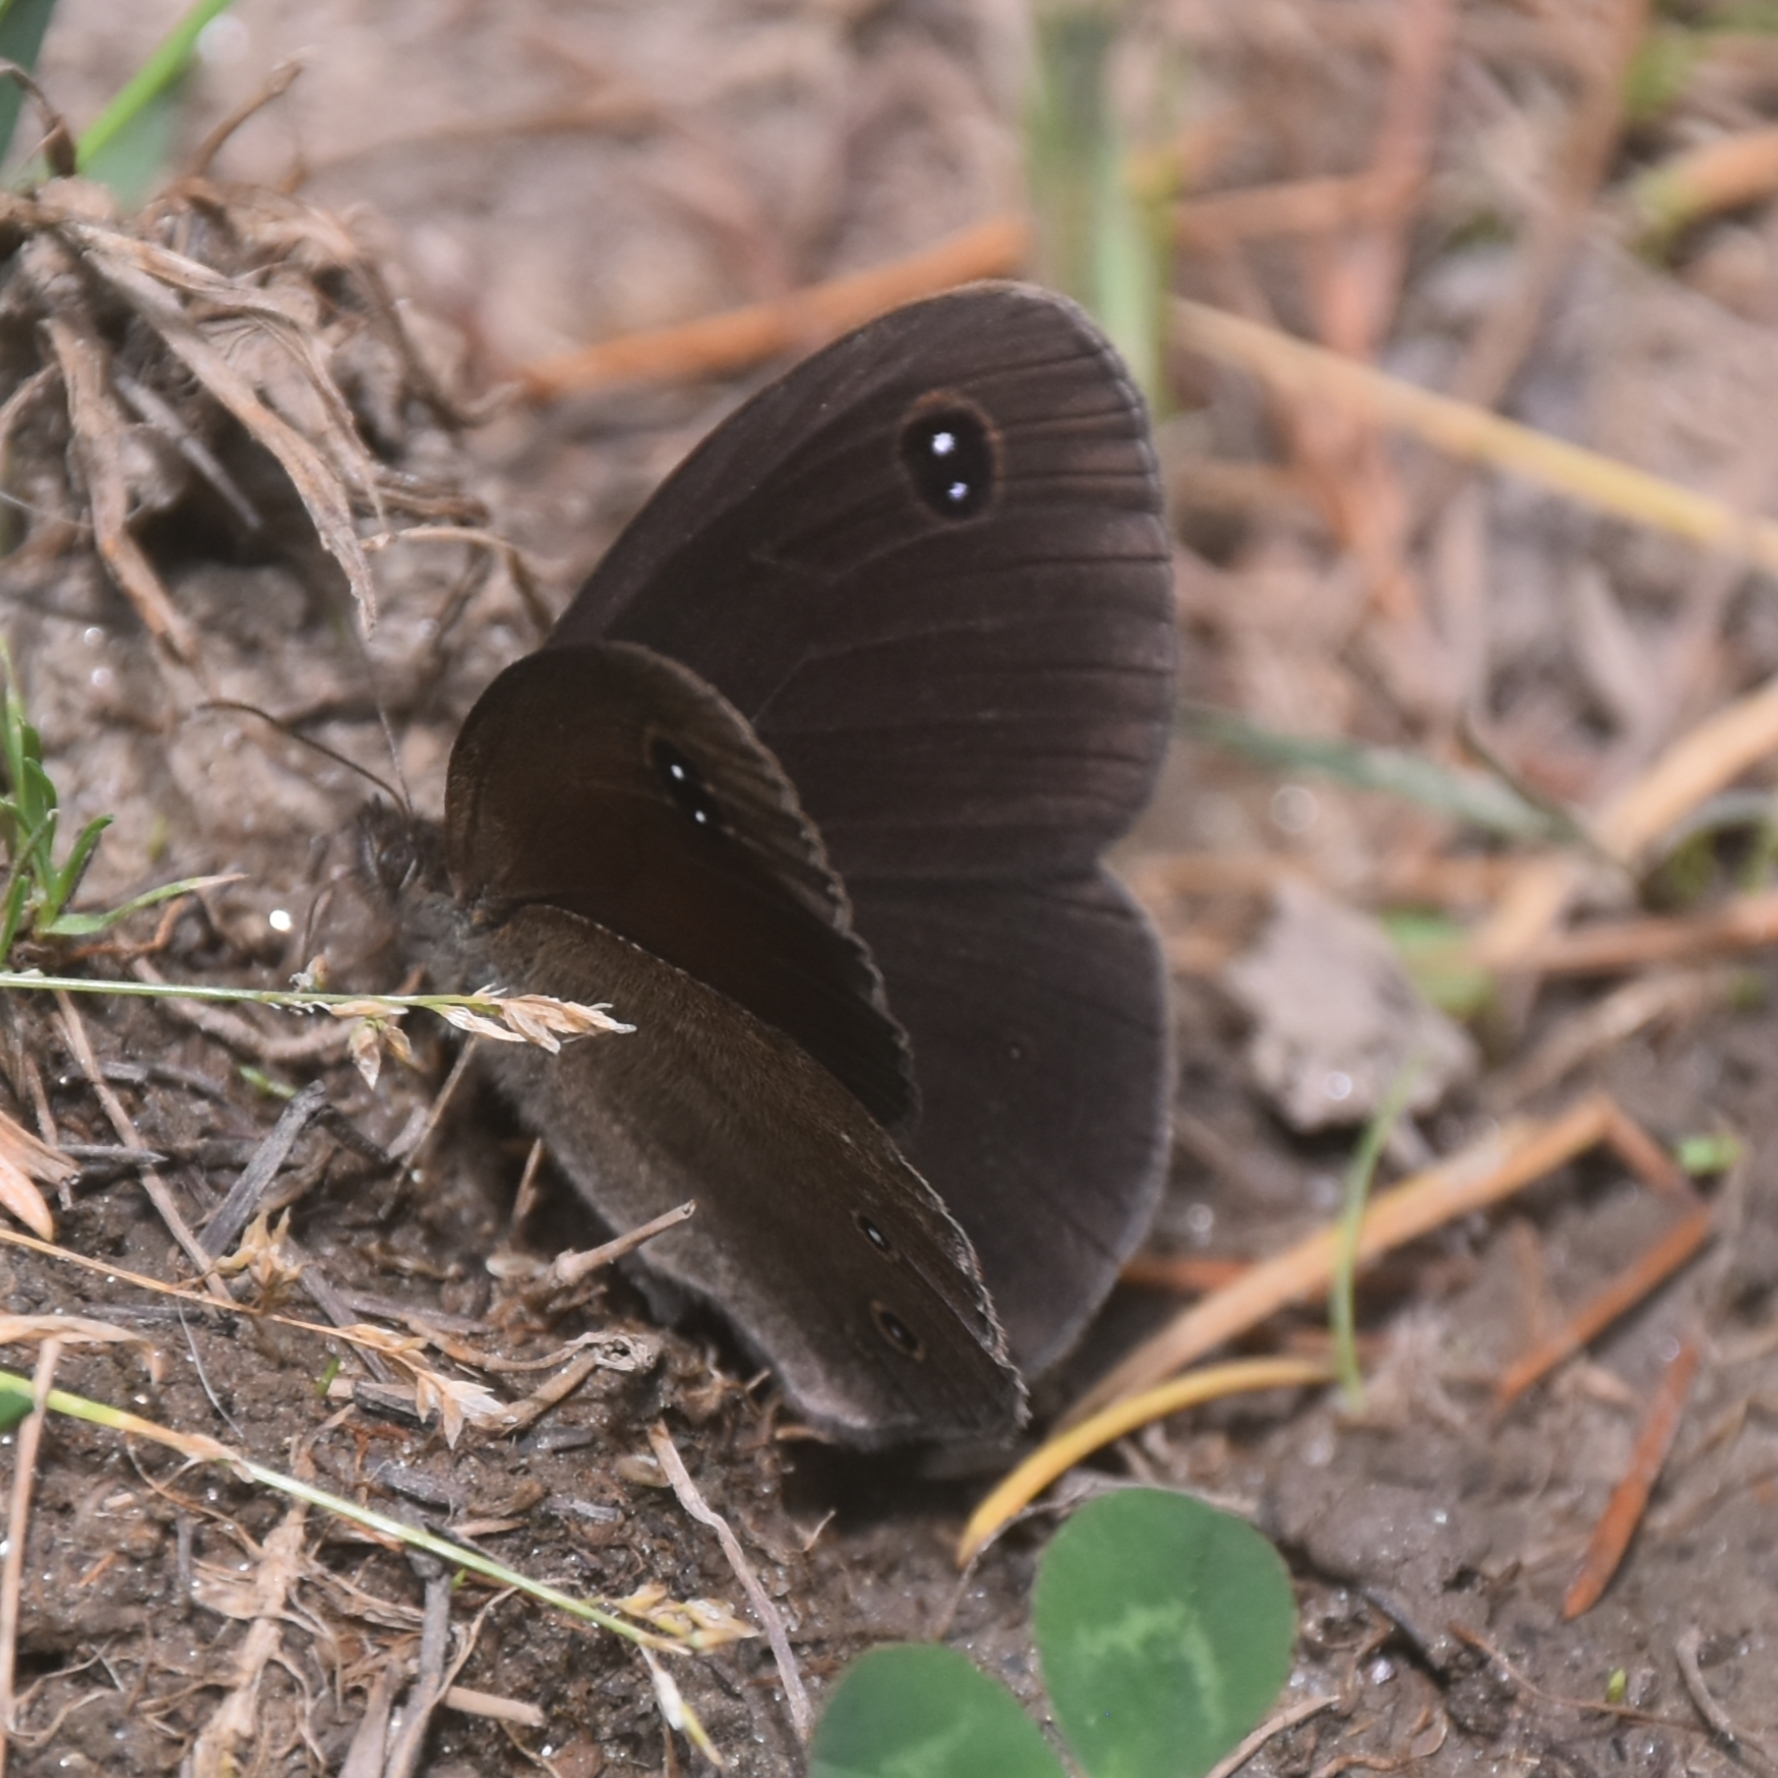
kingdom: Animalia
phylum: Arthropoda
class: Insecta
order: Lepidoptera
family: Nymphalidae
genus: Callerebia
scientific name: Callerebia nirmala
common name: Common argus
